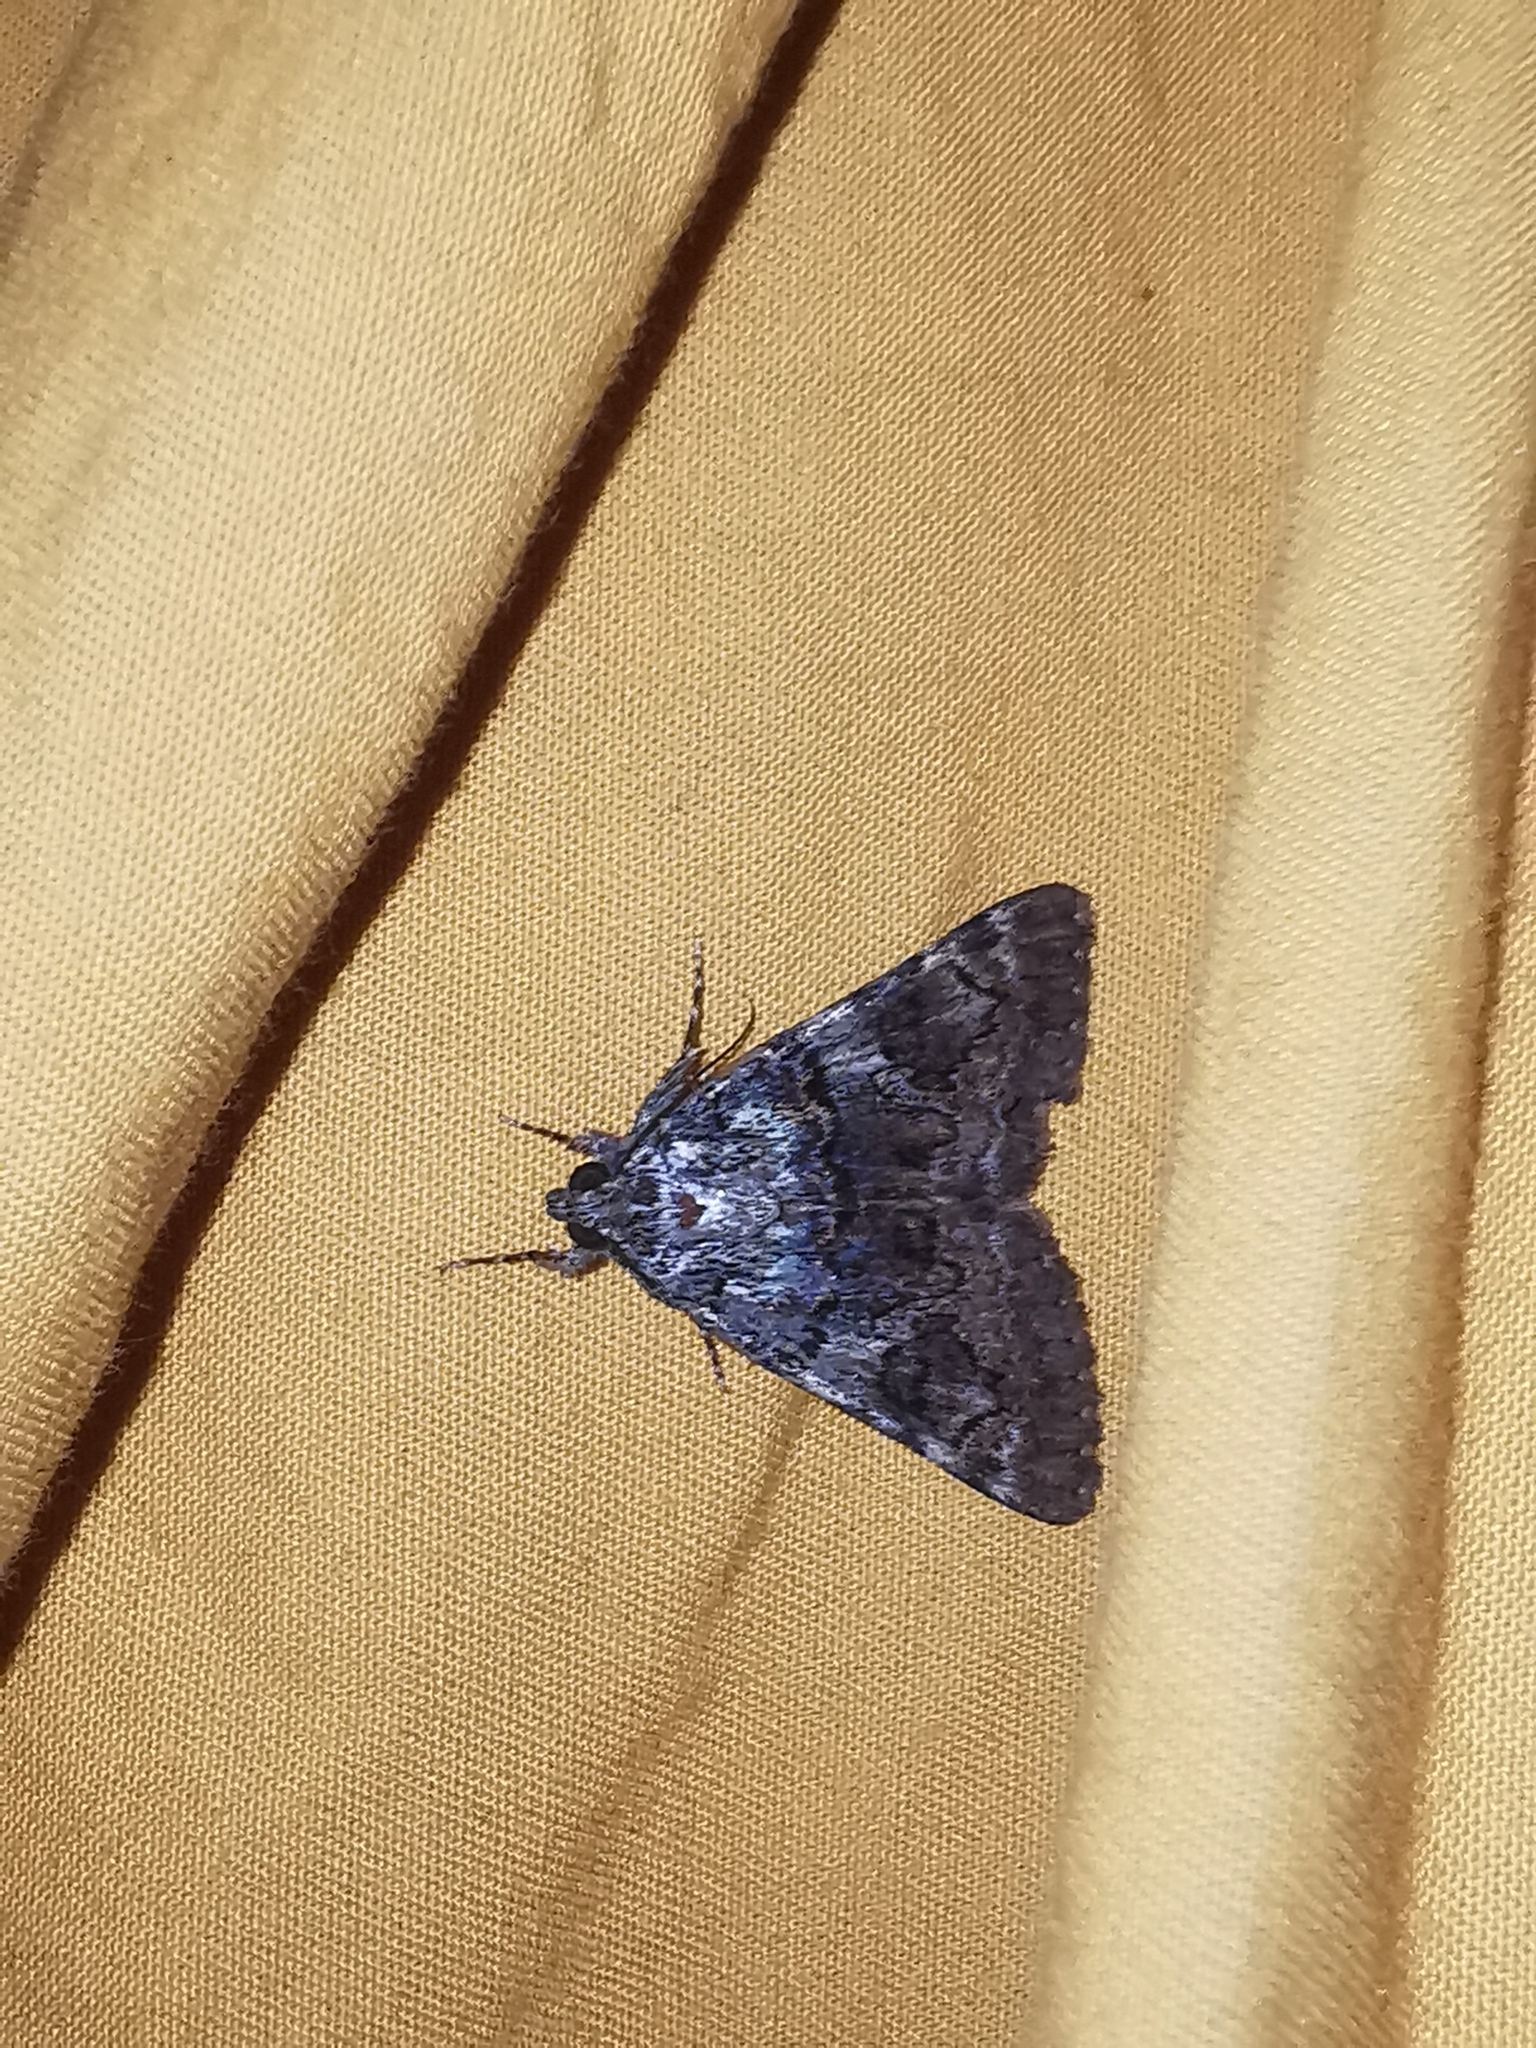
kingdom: Animalia
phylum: Arthropoda
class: Insecta
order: Lepidoptera
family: Erebidae
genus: Catocala
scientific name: Catocala nymphagoga
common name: Oak yellow underwing
